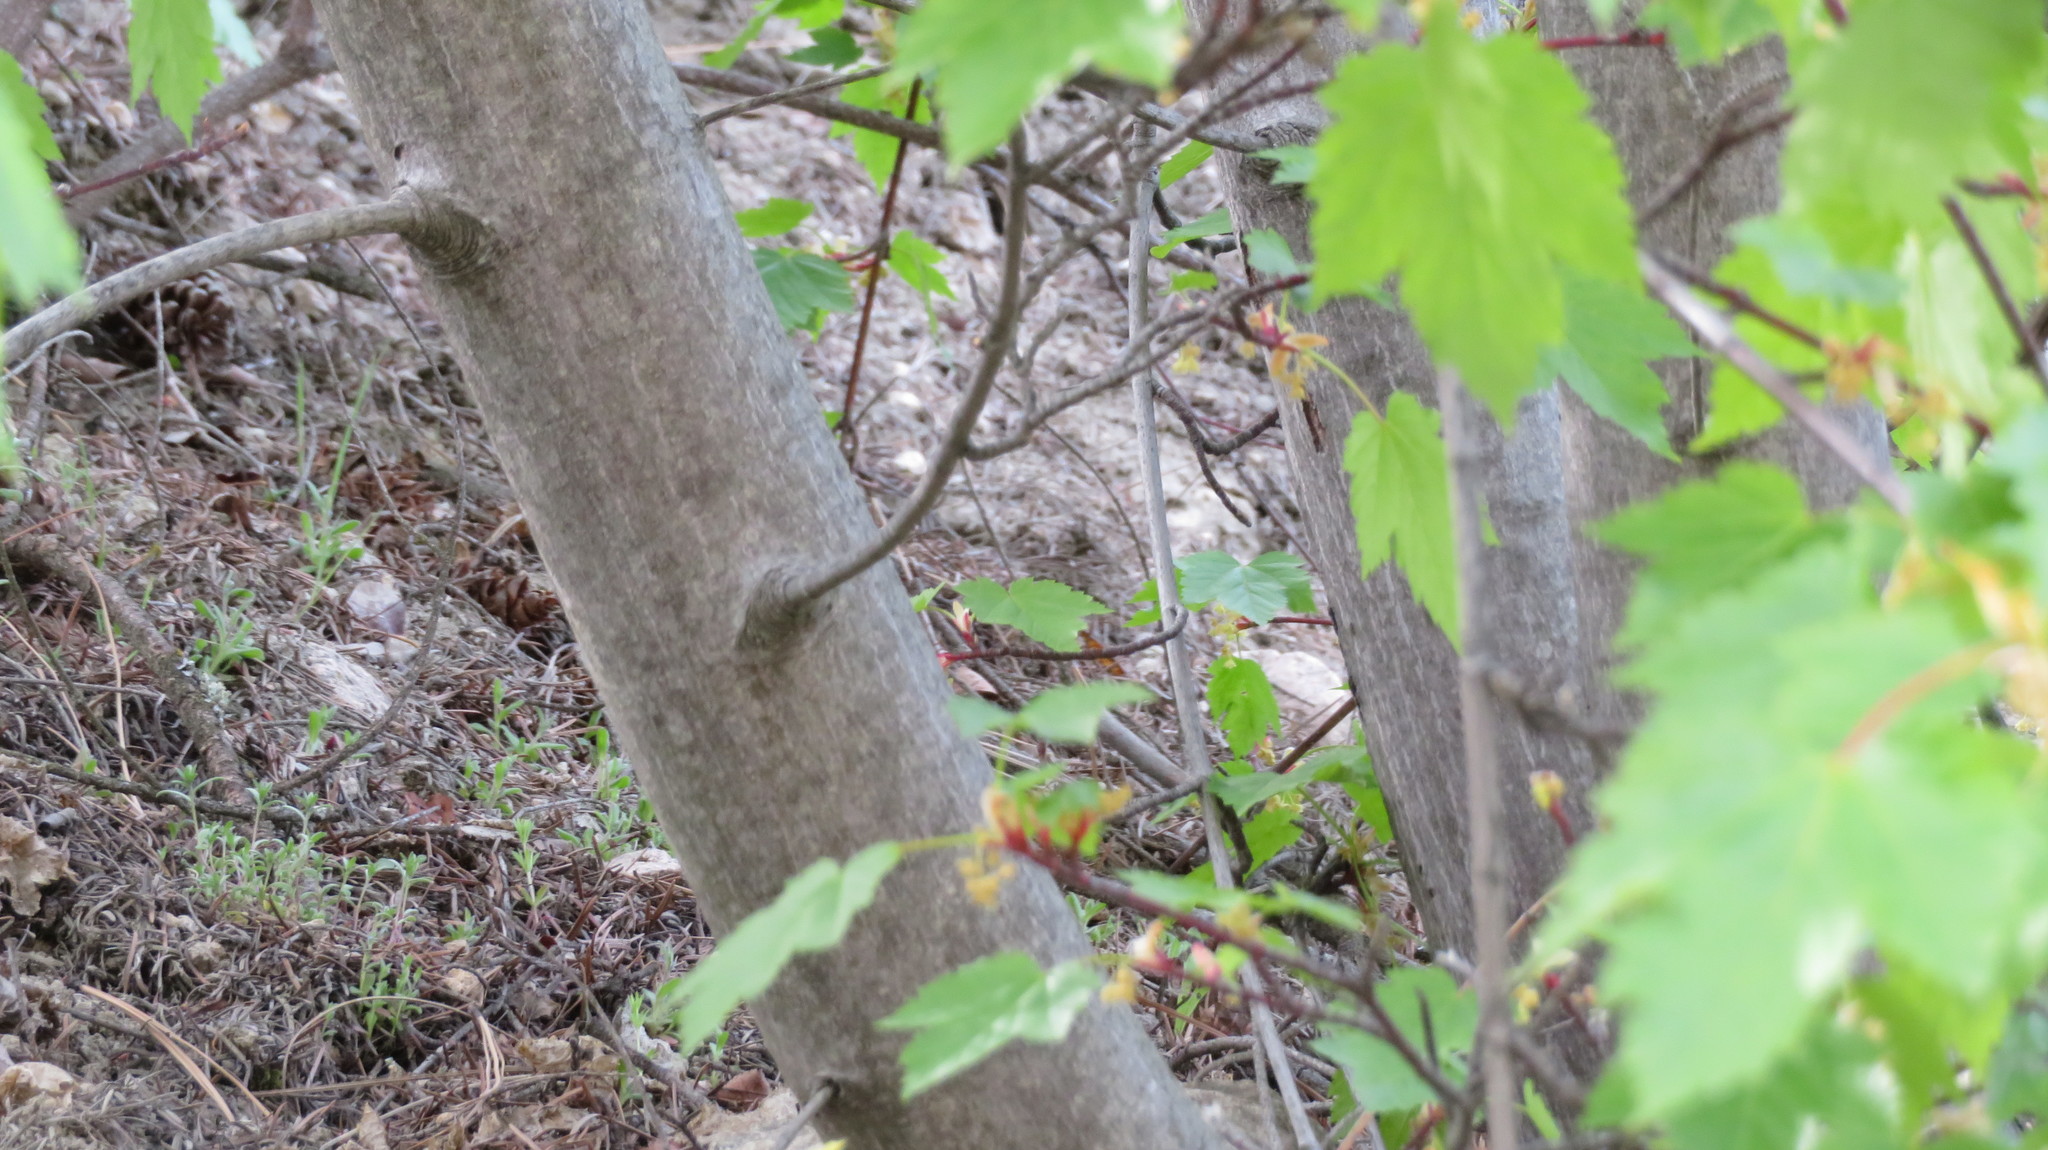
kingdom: Plantae
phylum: Tracheophyta
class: Magnoliopsida
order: Sapindales
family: Sapindaceae
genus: Acer
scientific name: Acer glabrum
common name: Rocky mountain maple
